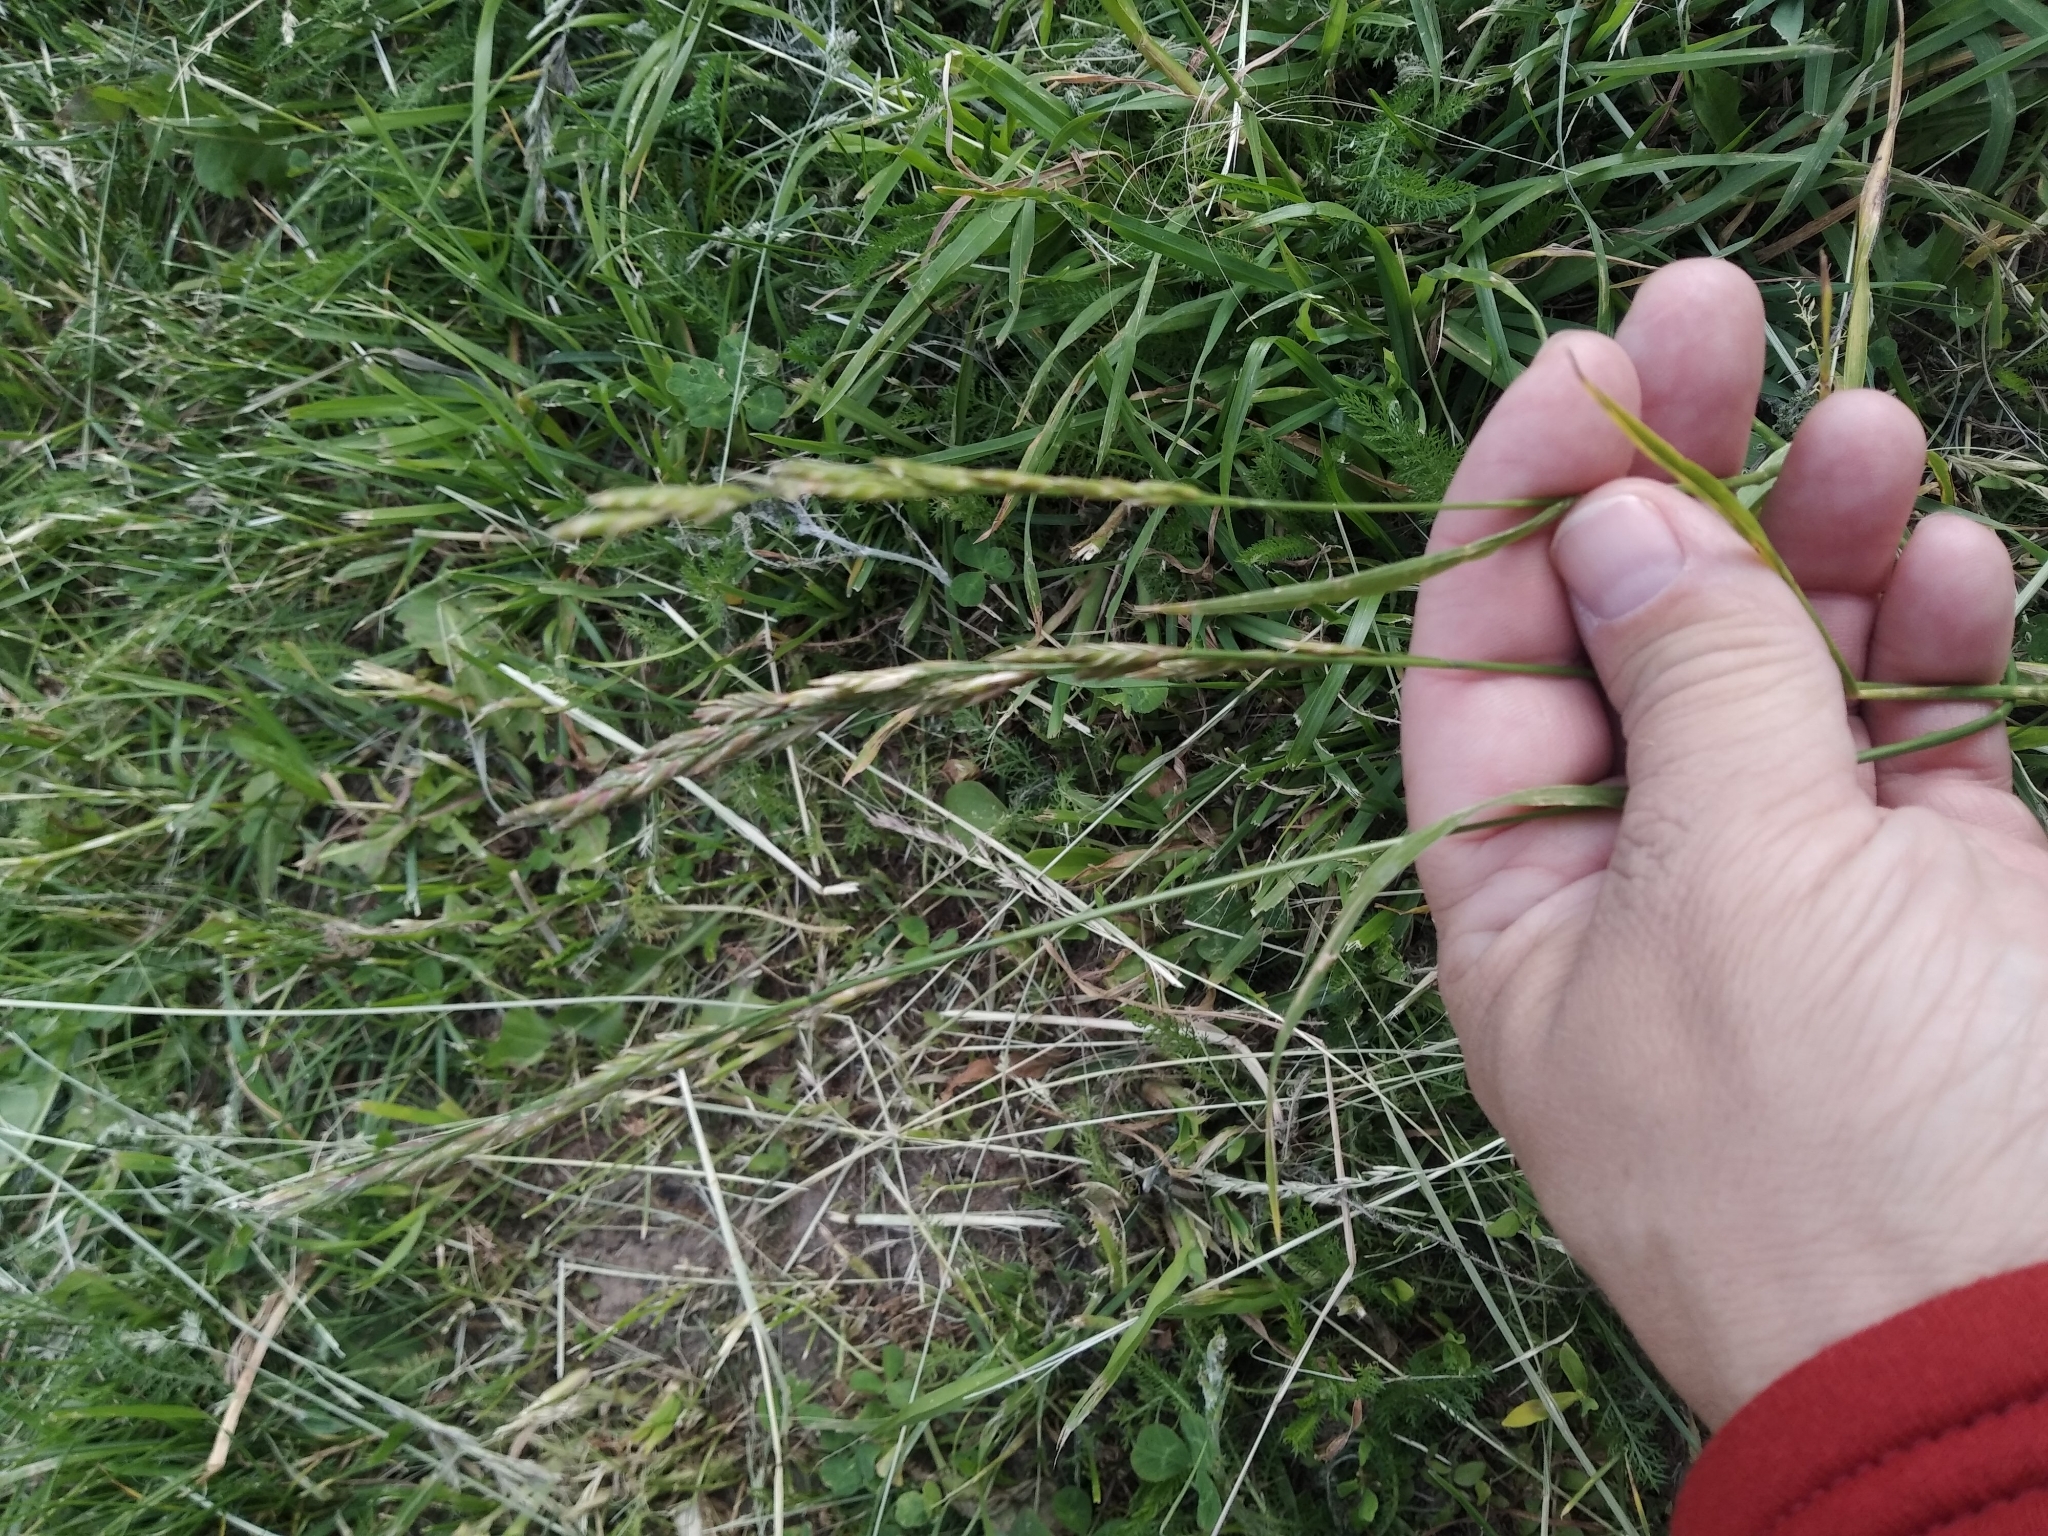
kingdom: Plantae
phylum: Tracheophyta
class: Liliopsida
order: Poales
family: Poaceae
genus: Lolium
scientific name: Lolium pratense
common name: Dover grass
